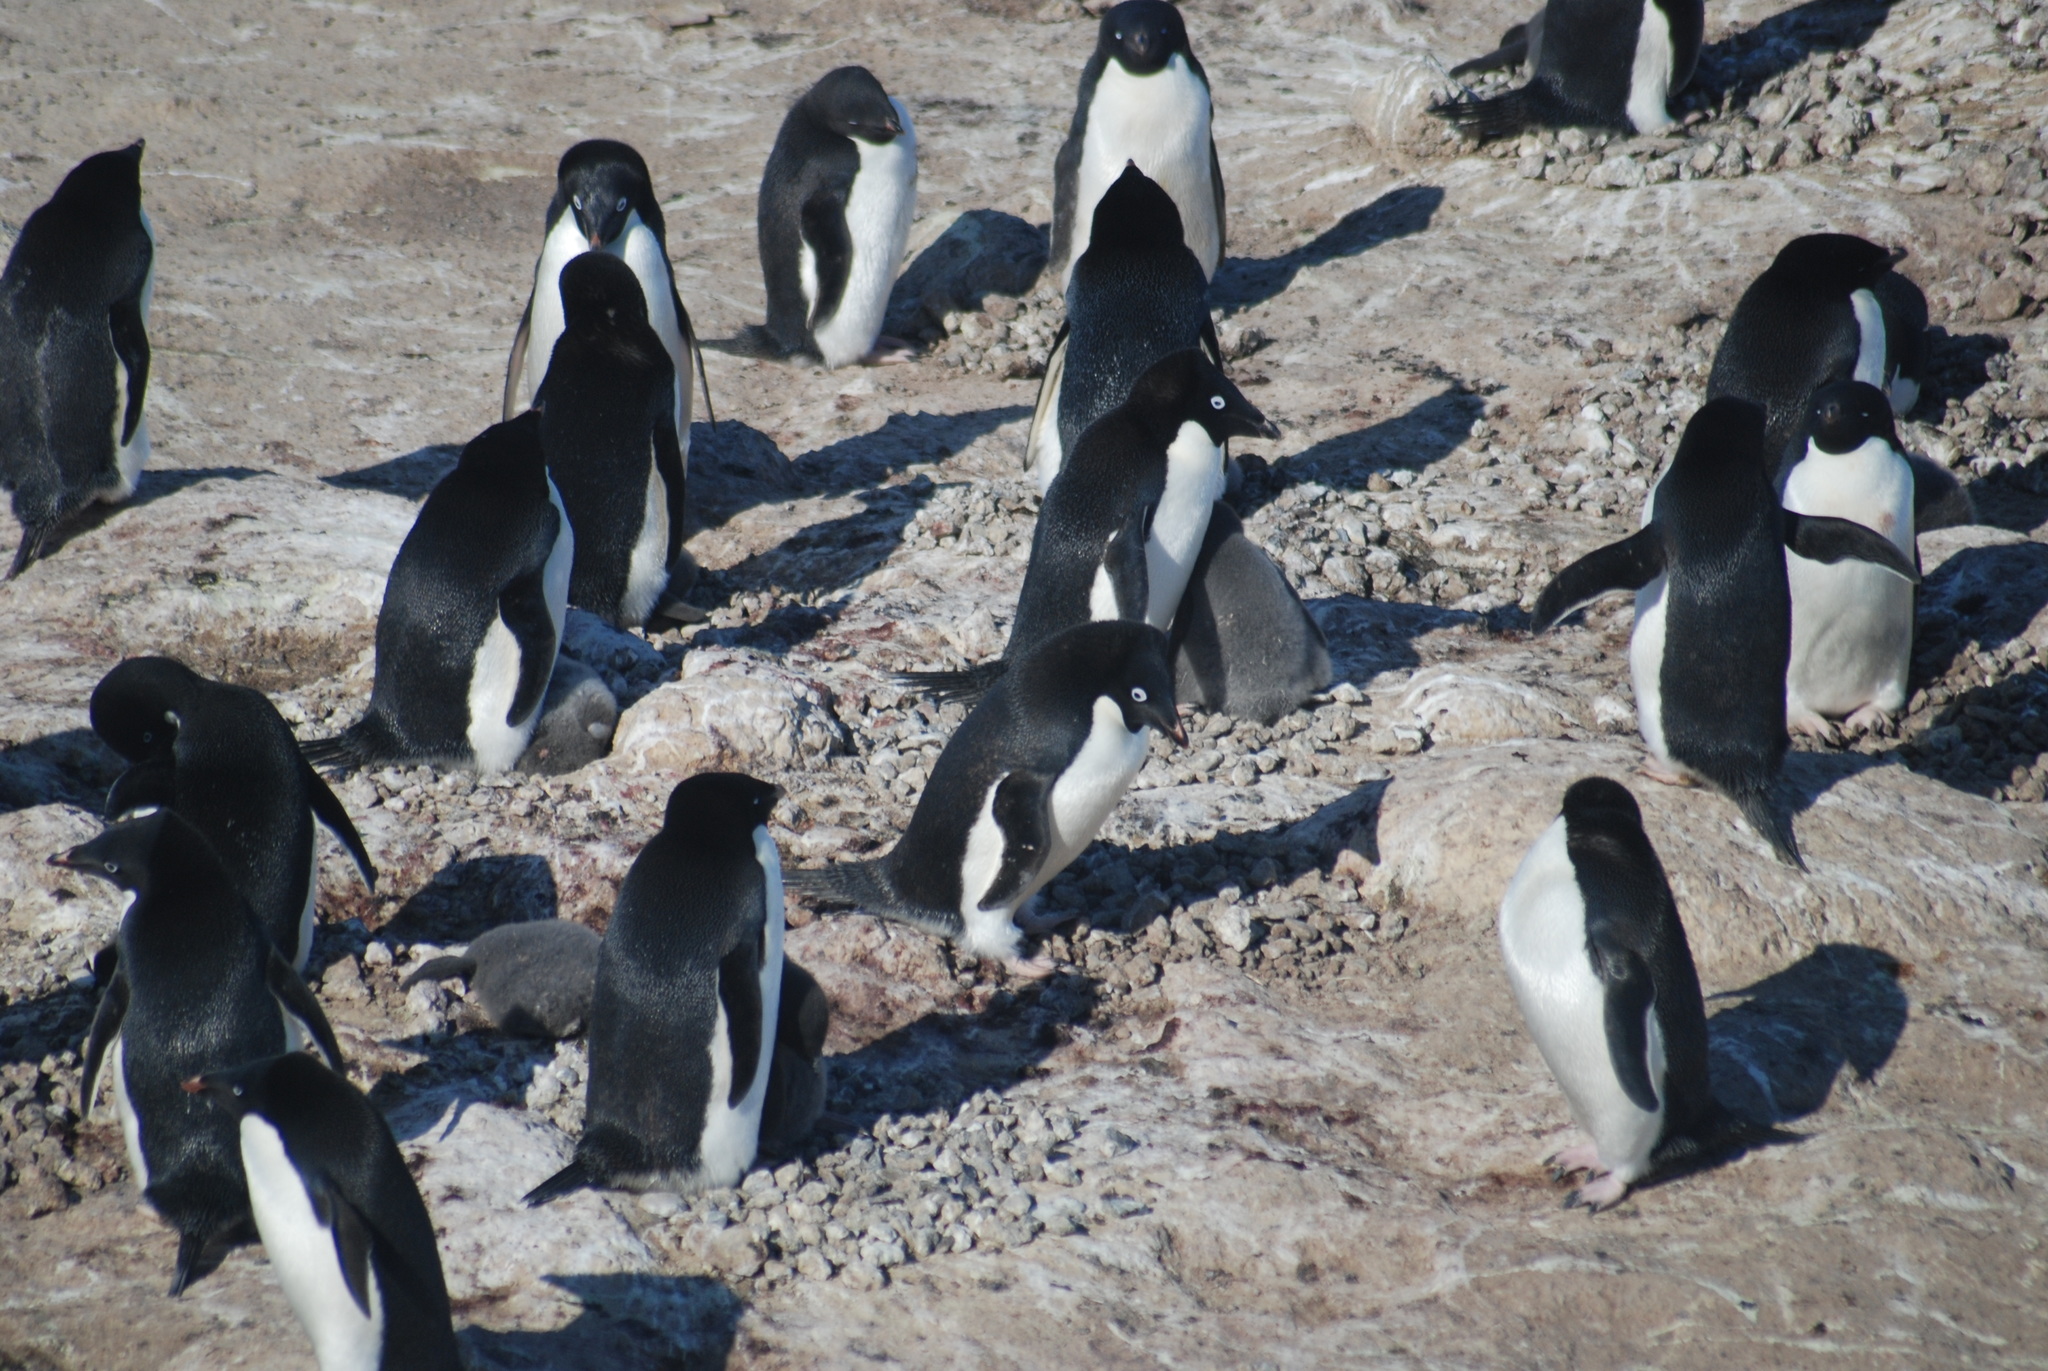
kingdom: Animalia
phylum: Chordata
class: Aves
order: Sphenisciformes
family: Spheniscidae
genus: Pygoscelis
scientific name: Pygoscelis adeliae
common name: Adelie penguin
